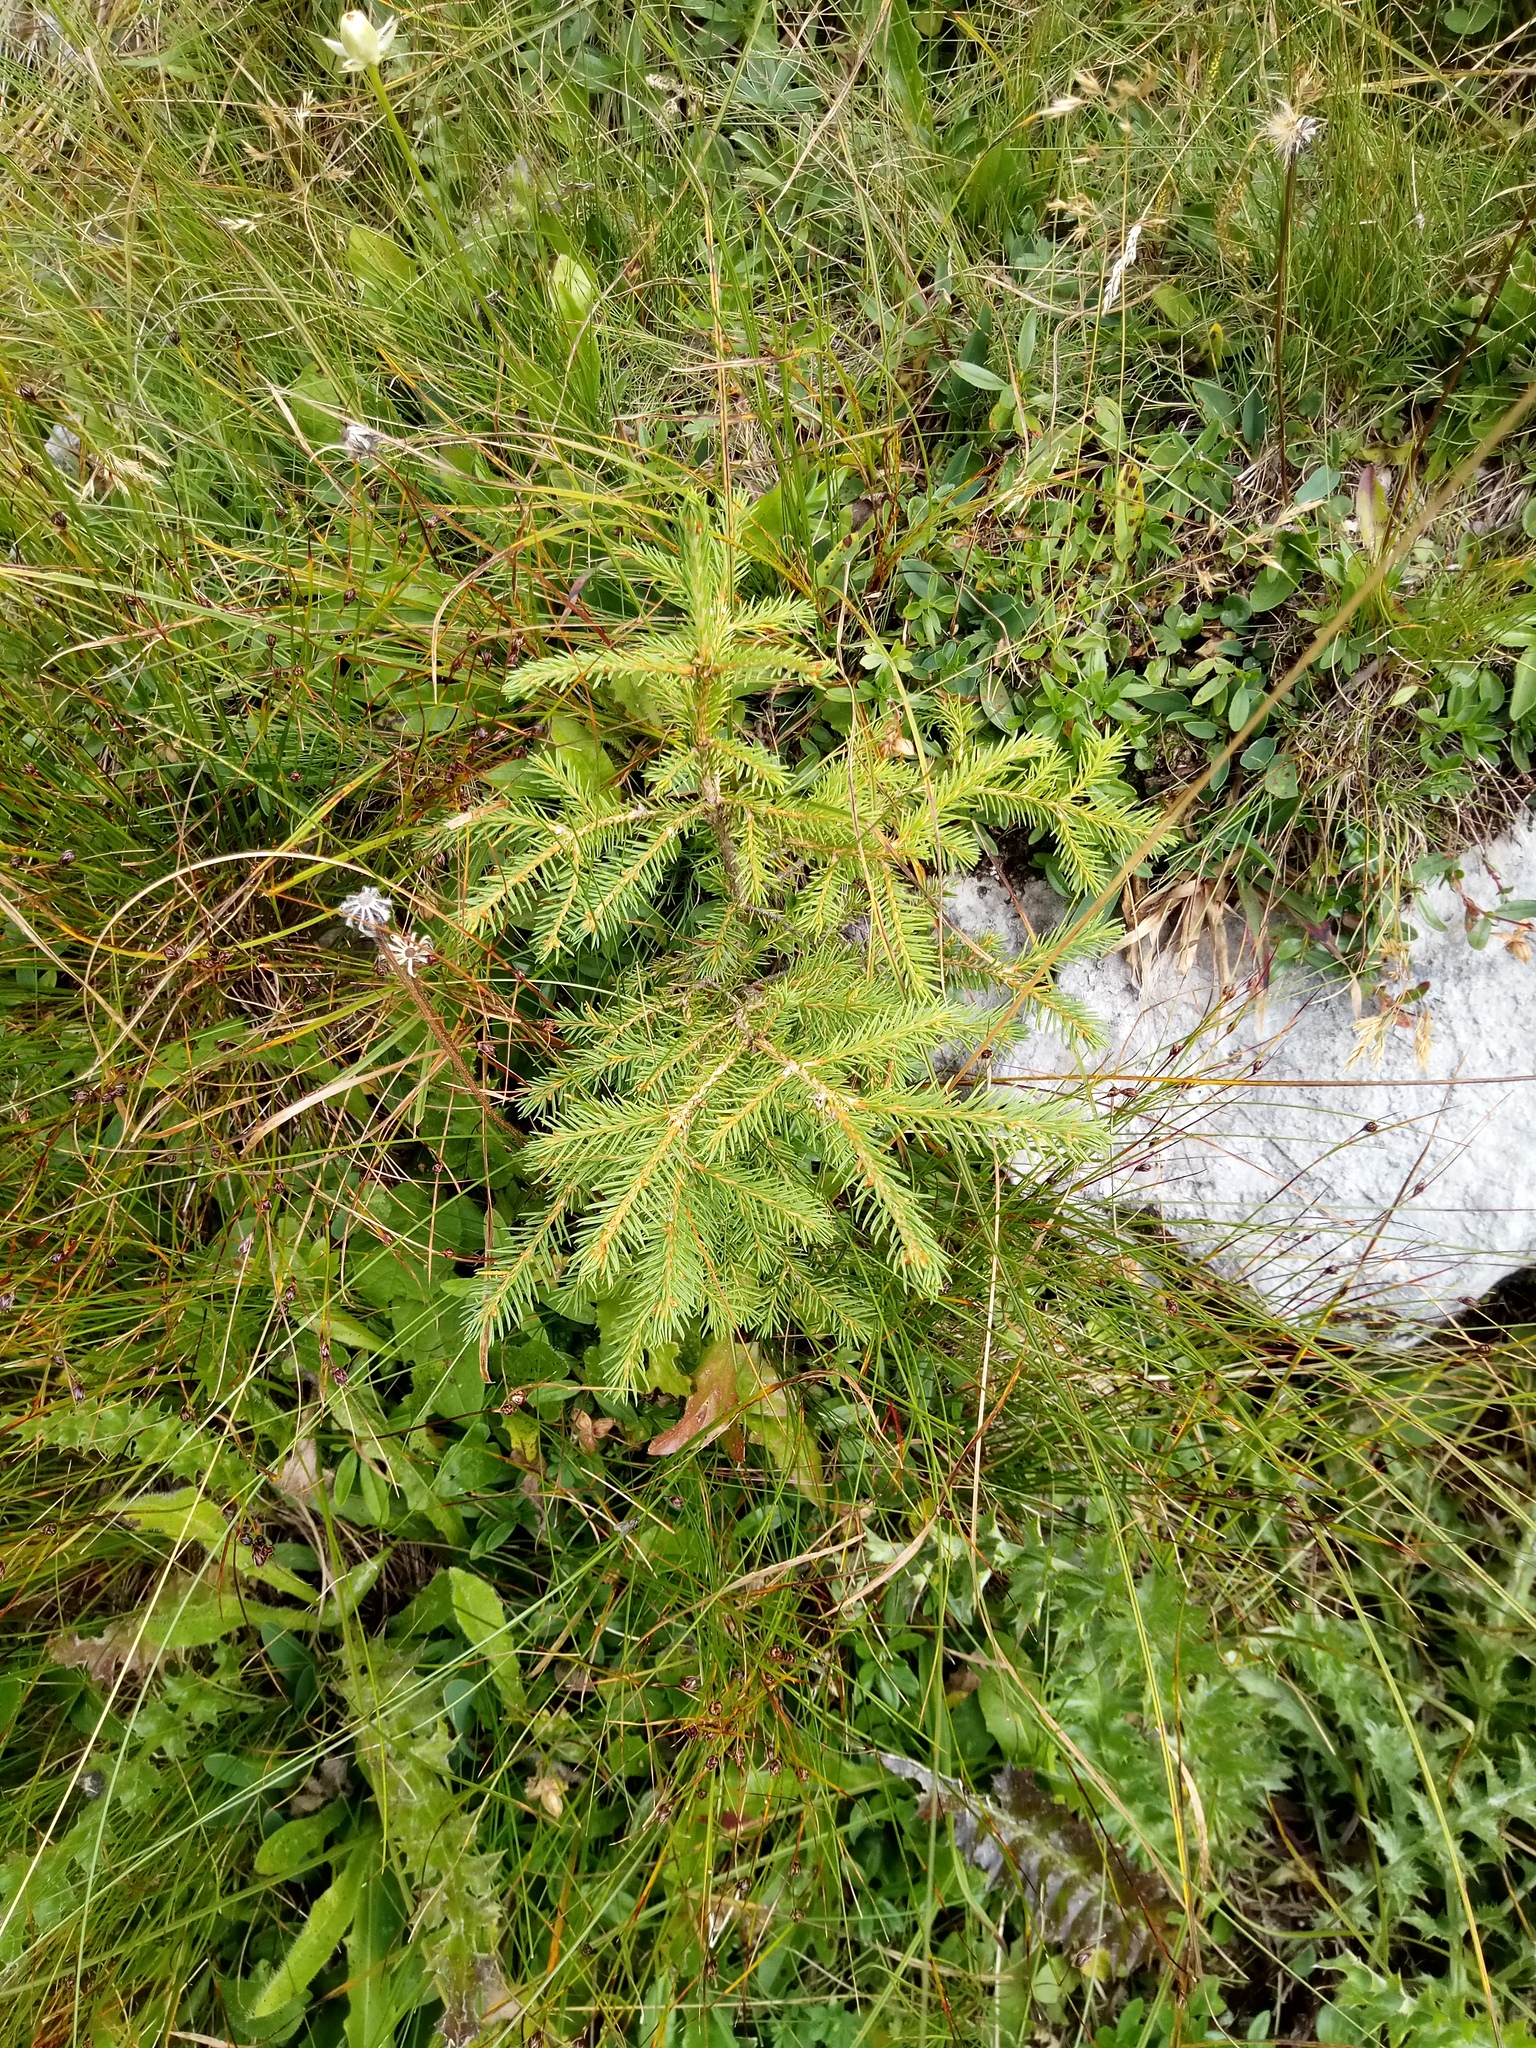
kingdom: Plantae
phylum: Tracheophyta
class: Pinopsida
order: Pinales
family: Pinaceae
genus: Picea
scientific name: Picea abies
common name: Norway spruce
